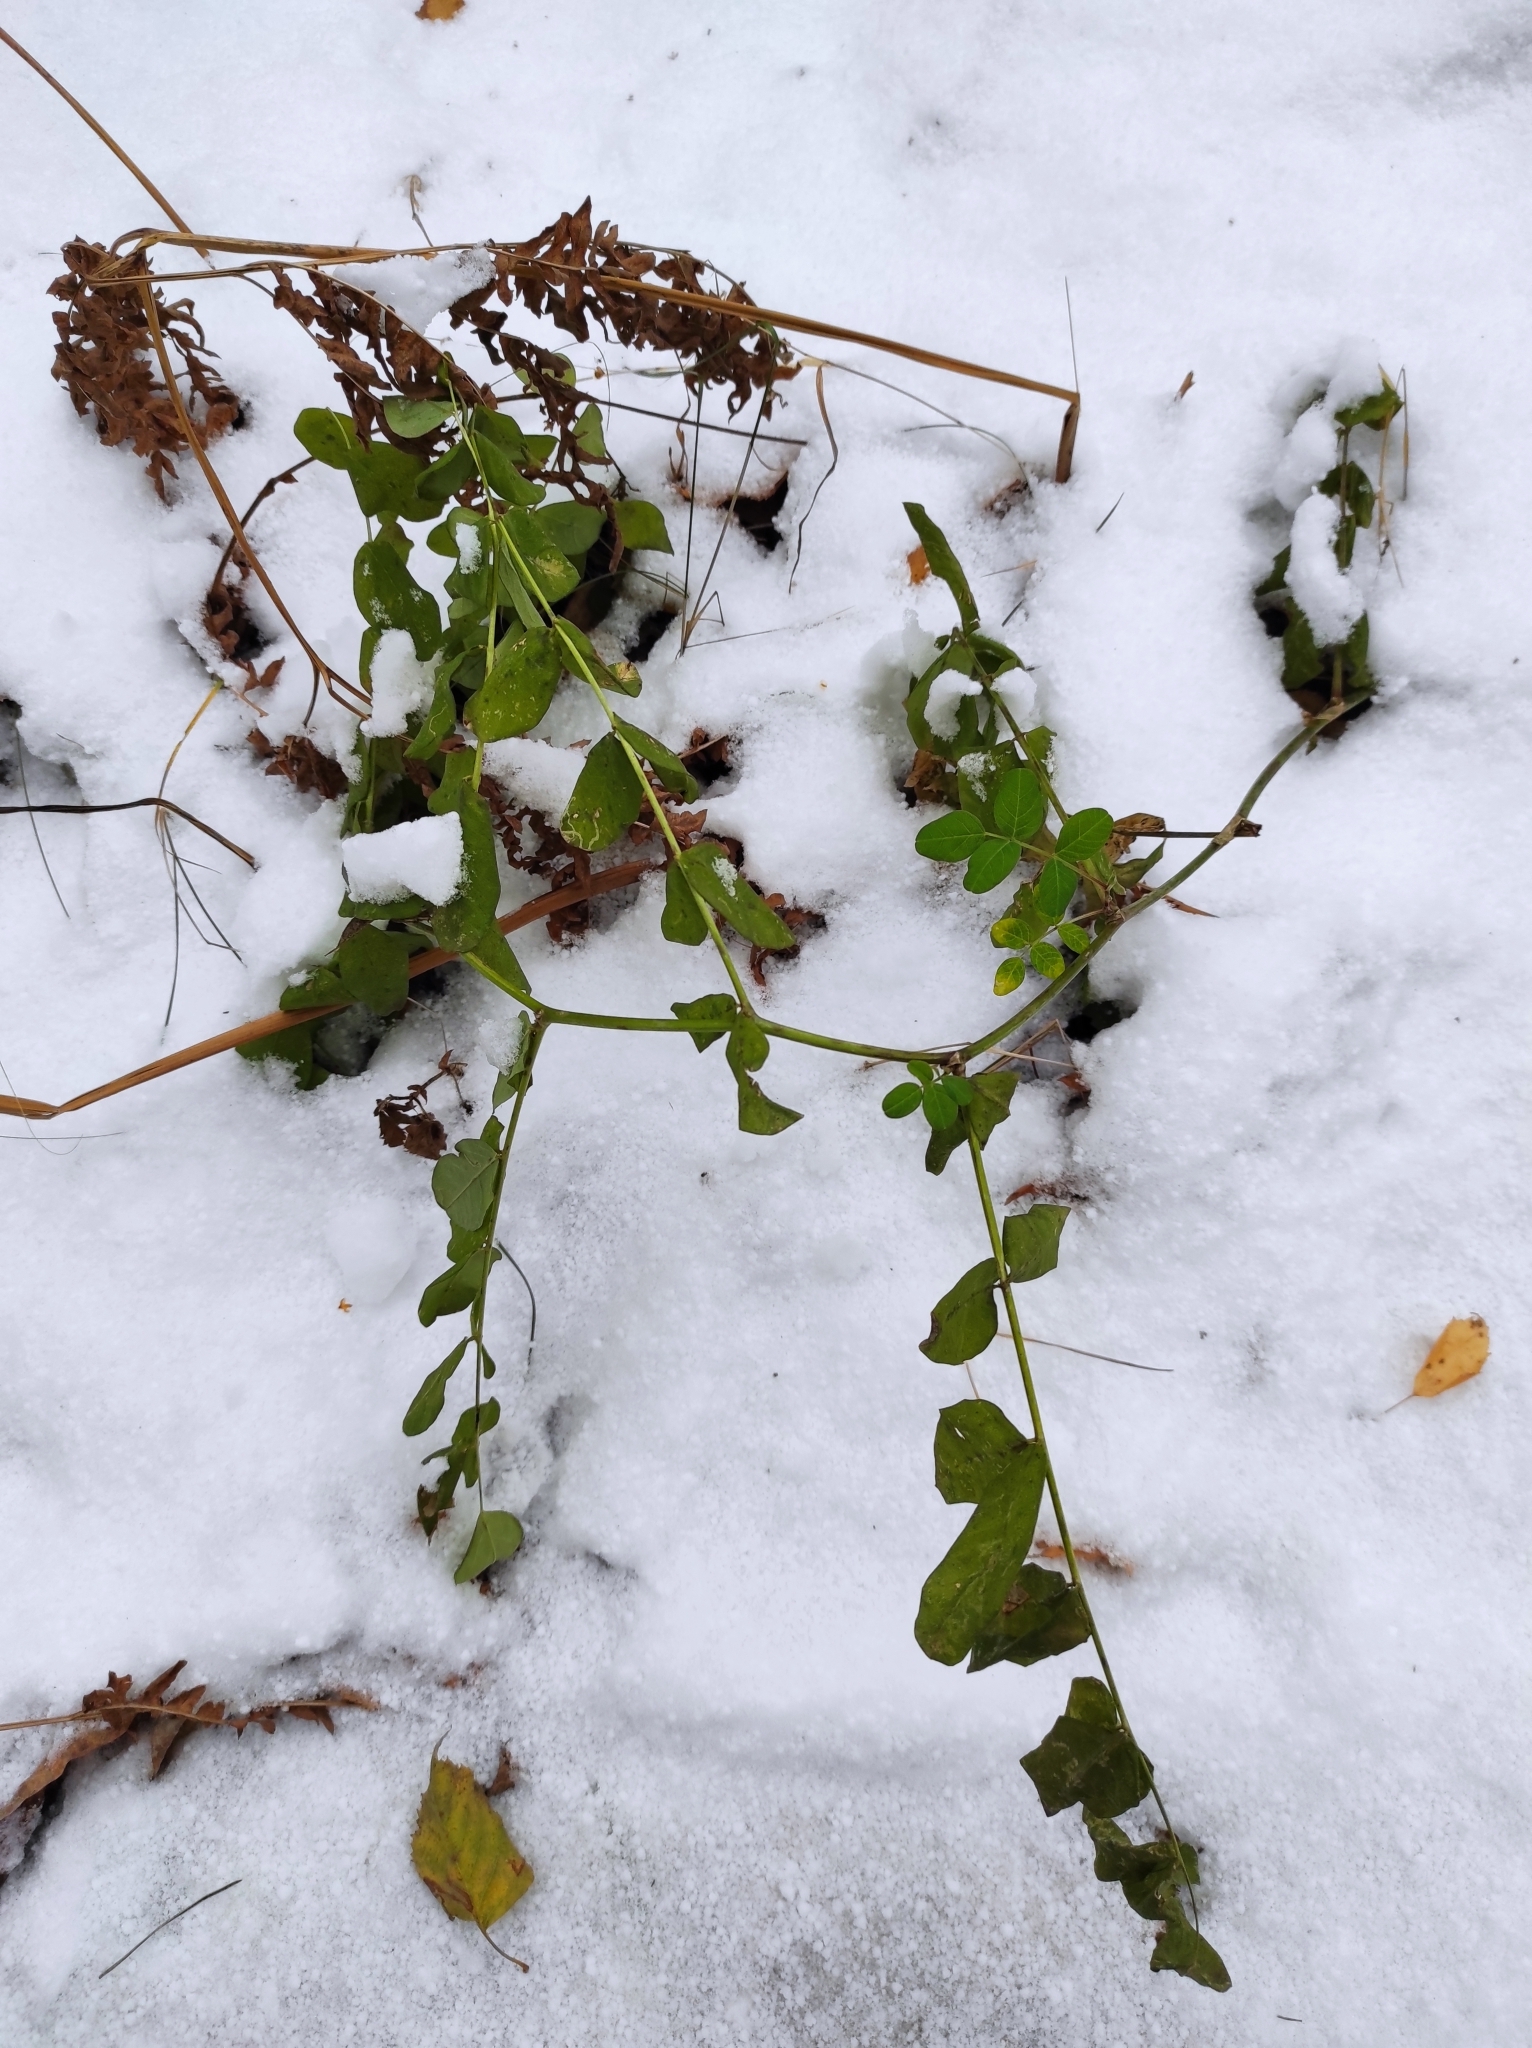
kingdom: Plantae
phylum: Tracheophyta
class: Magnoliopsida
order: Fabales
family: Fabaceae
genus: Lathyrus
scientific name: Lathyrus pisiformis
